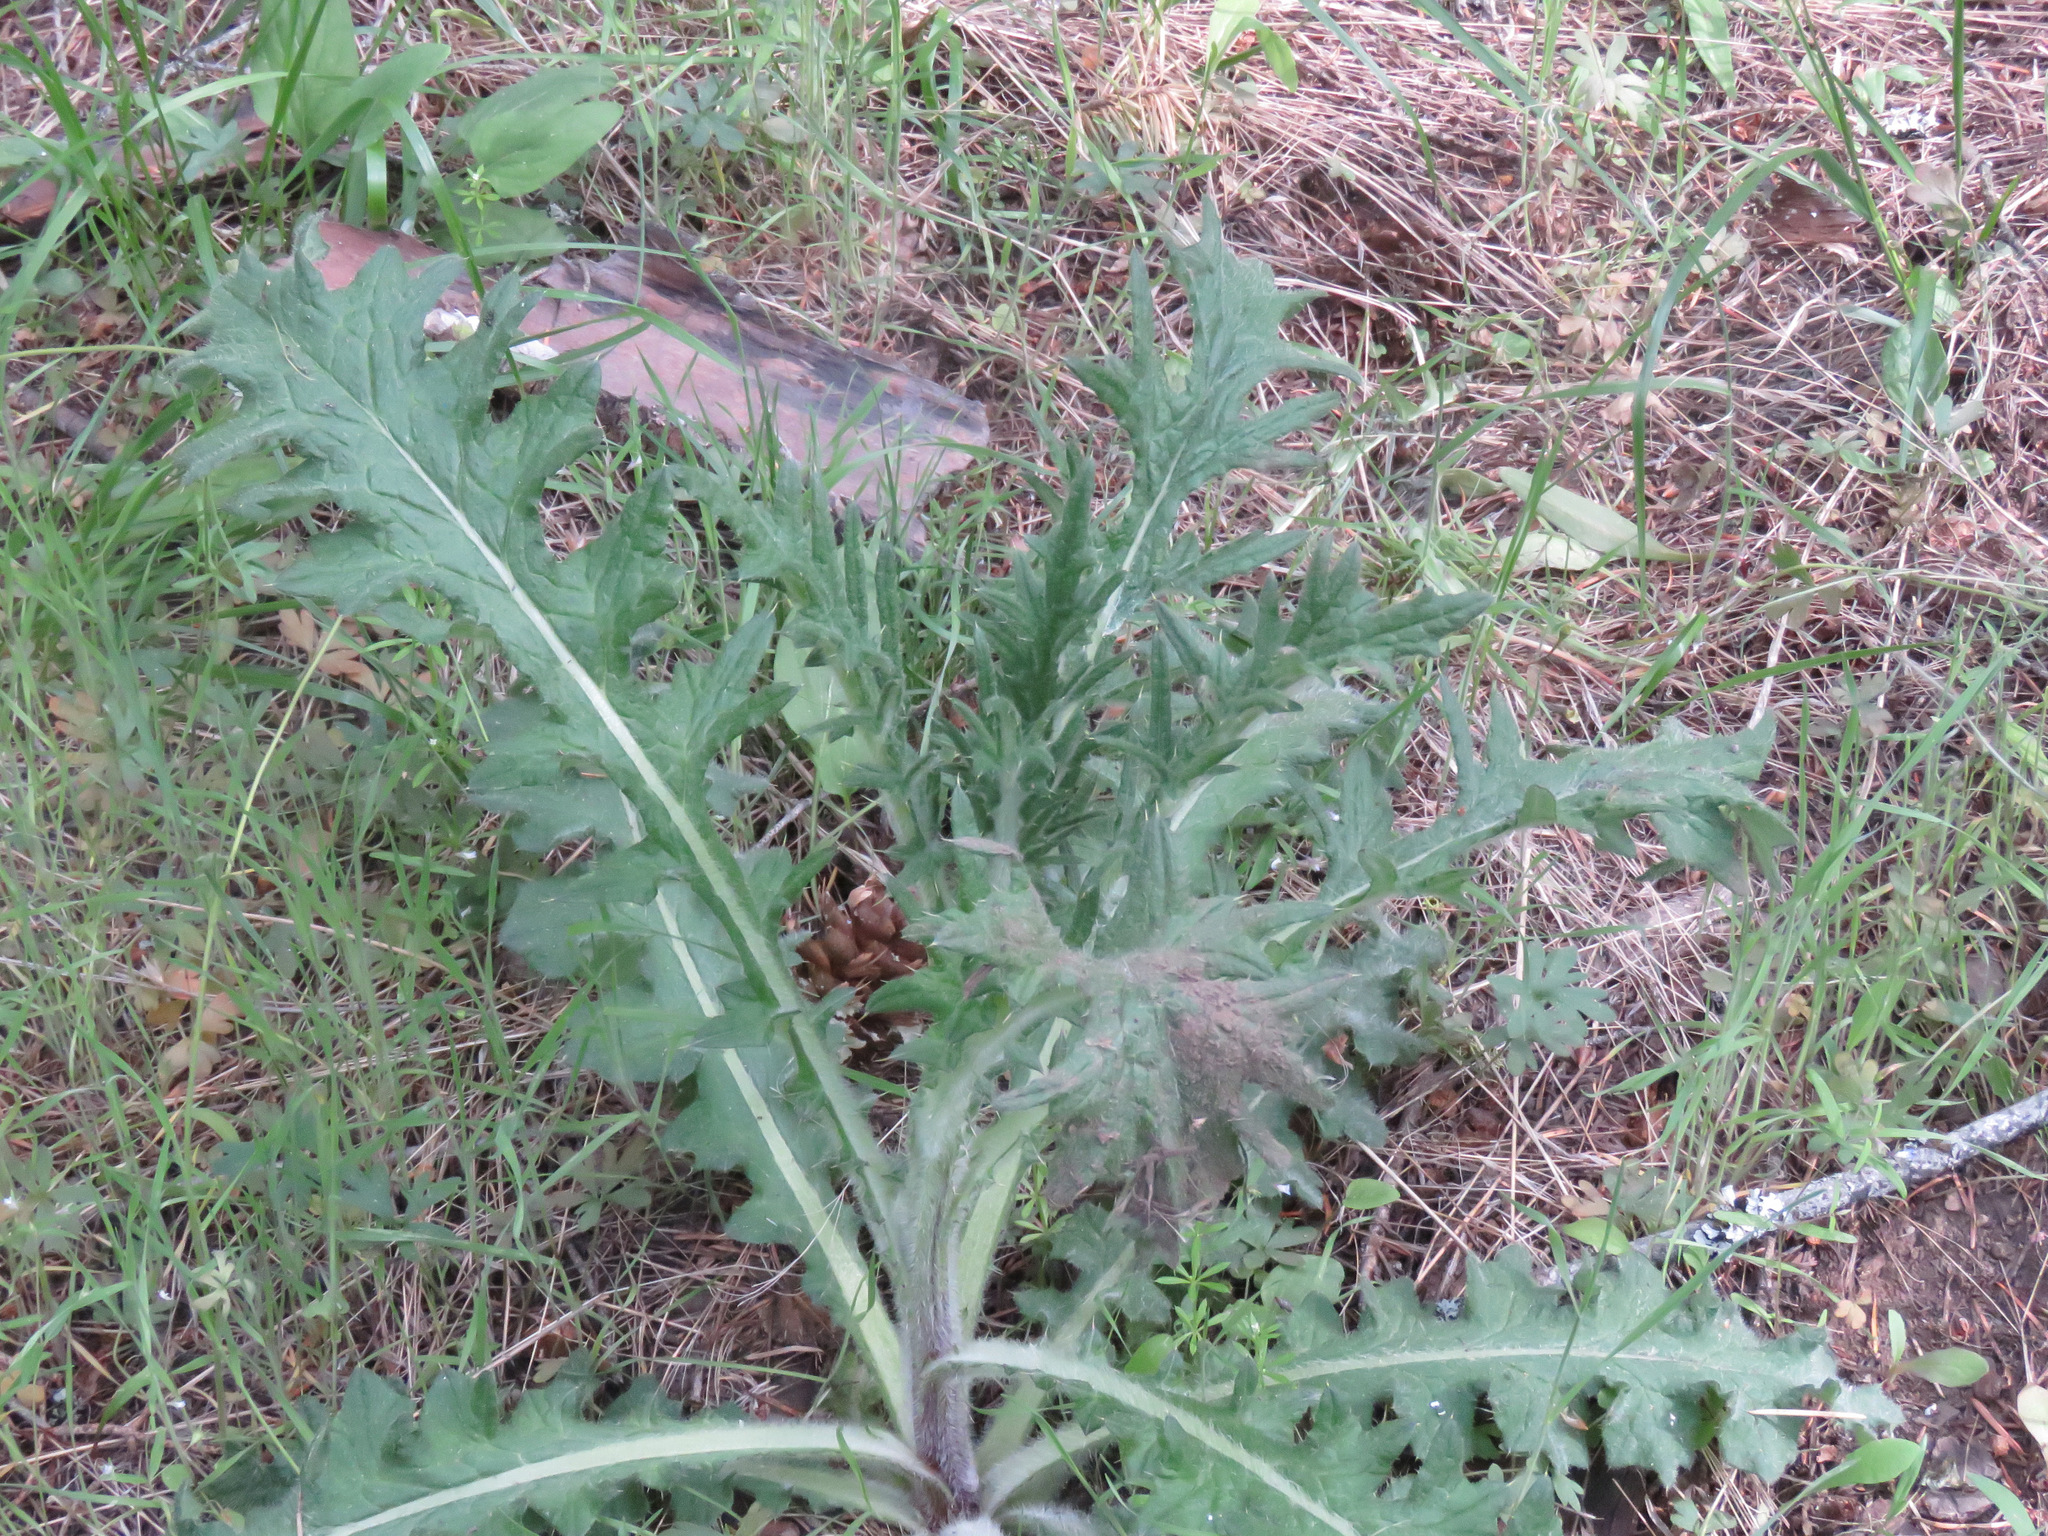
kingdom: Plantae
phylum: Tracheophyta
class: Magnoliopsida
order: Asterales
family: Asteraceae
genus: Cirsium
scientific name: Cirsium vulgare
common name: Bull thistle
